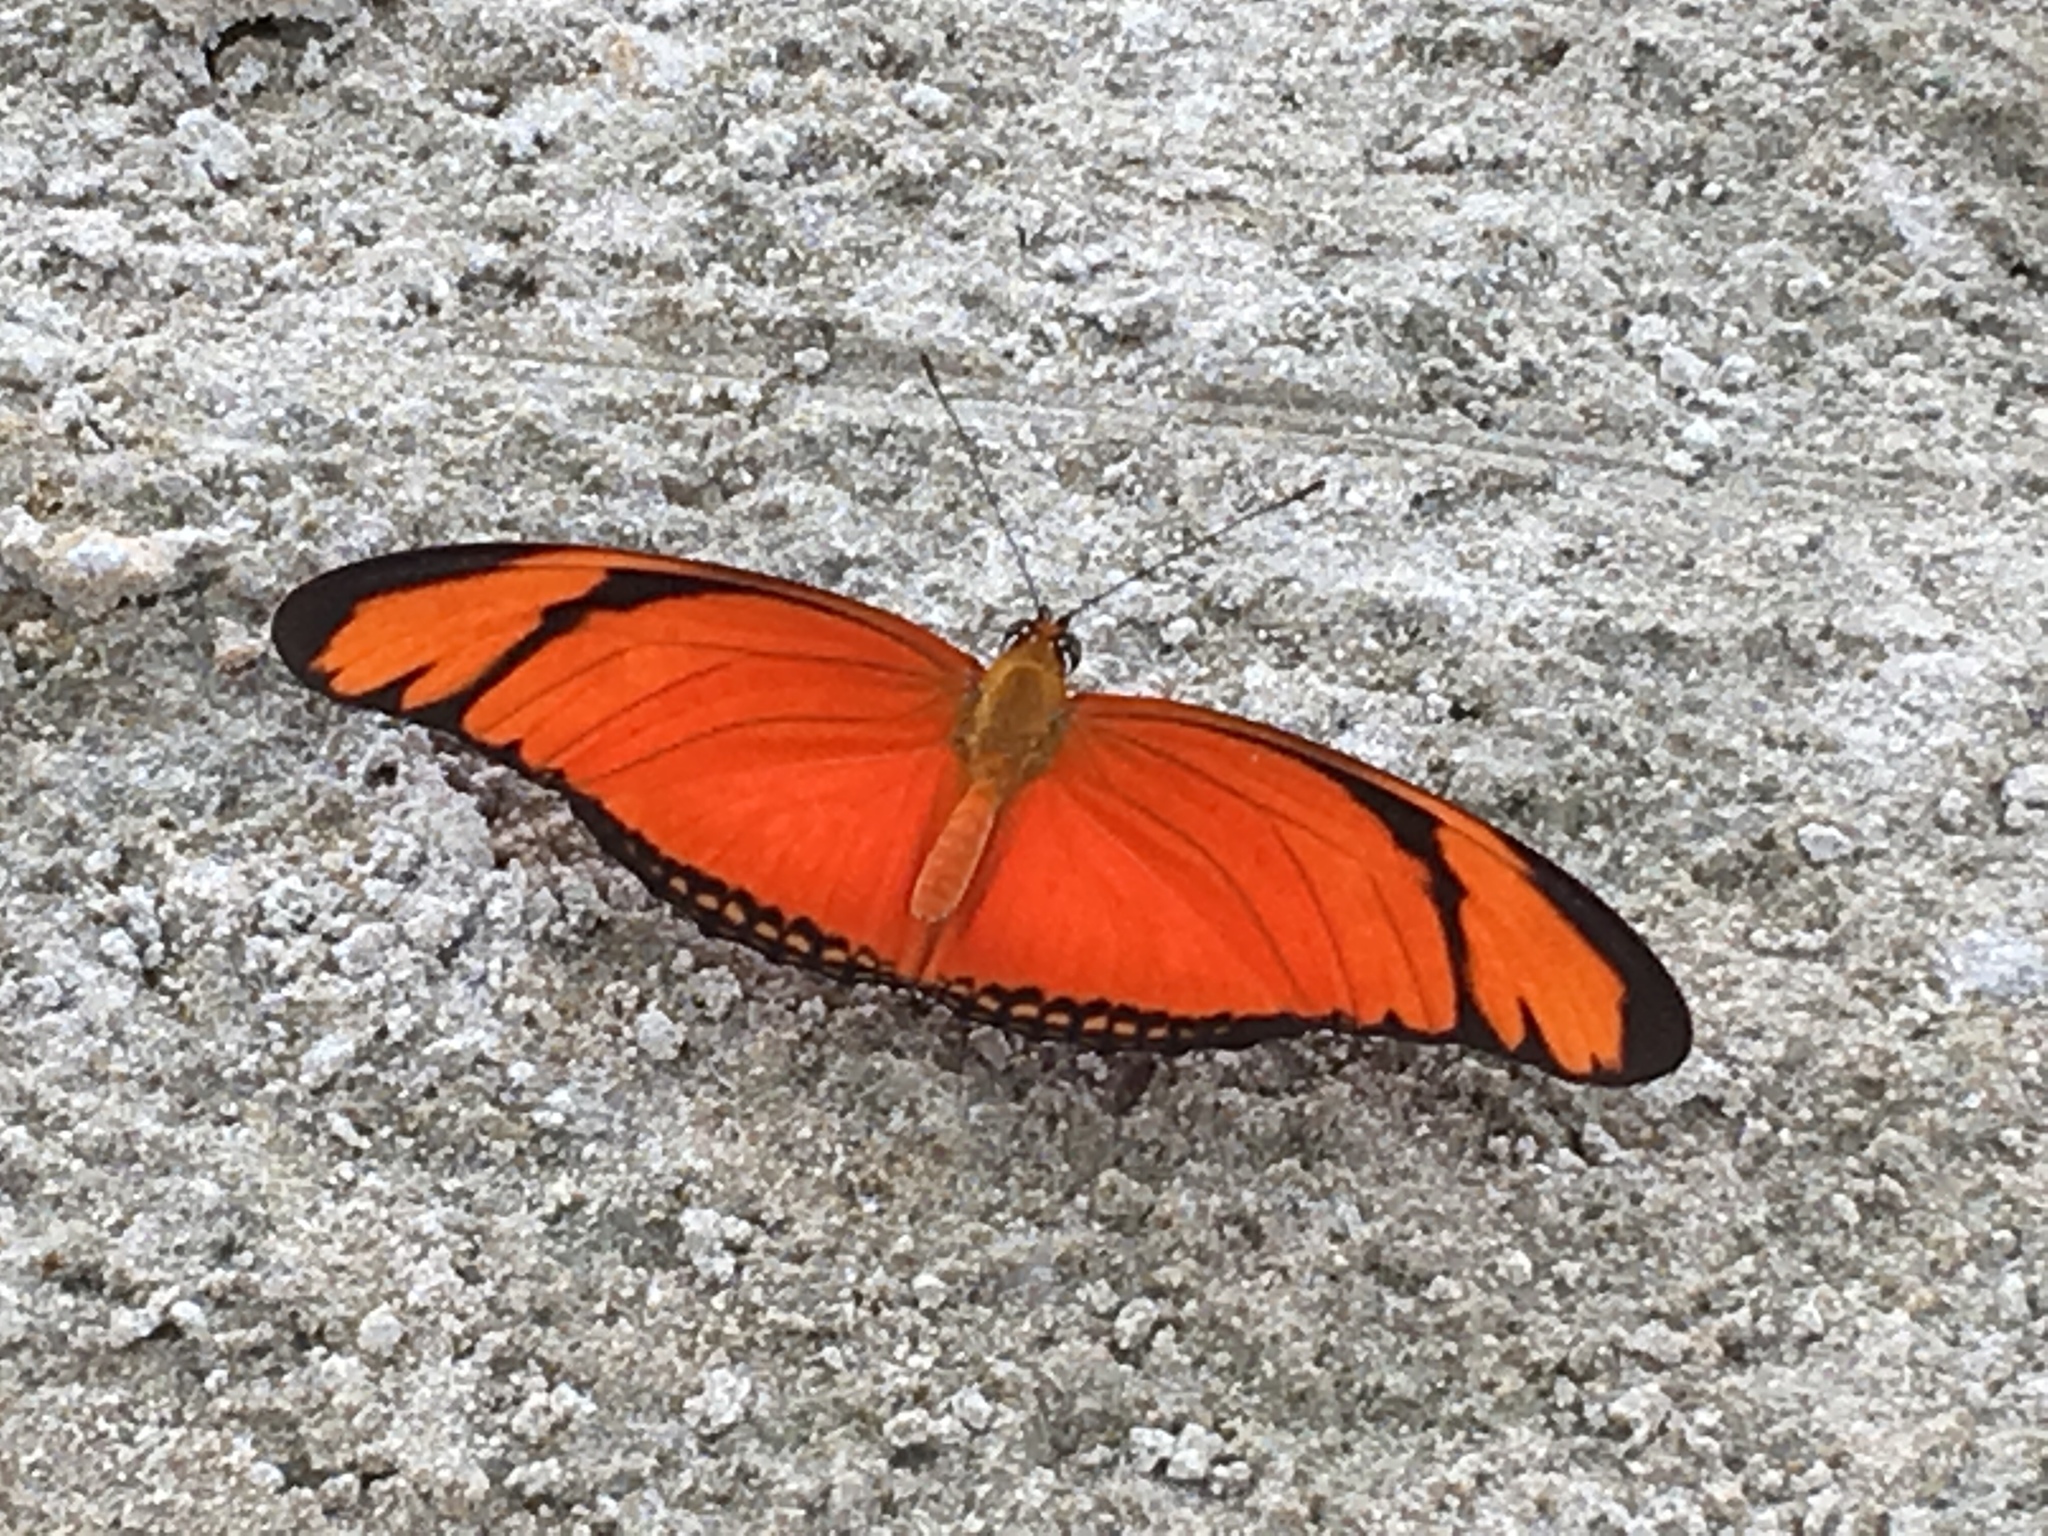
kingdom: Animalia
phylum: Arthropoda
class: Insecta
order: Lepidoptera
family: Nymphalidae
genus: Dryas
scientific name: Dryas iulia
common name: Flambeau
